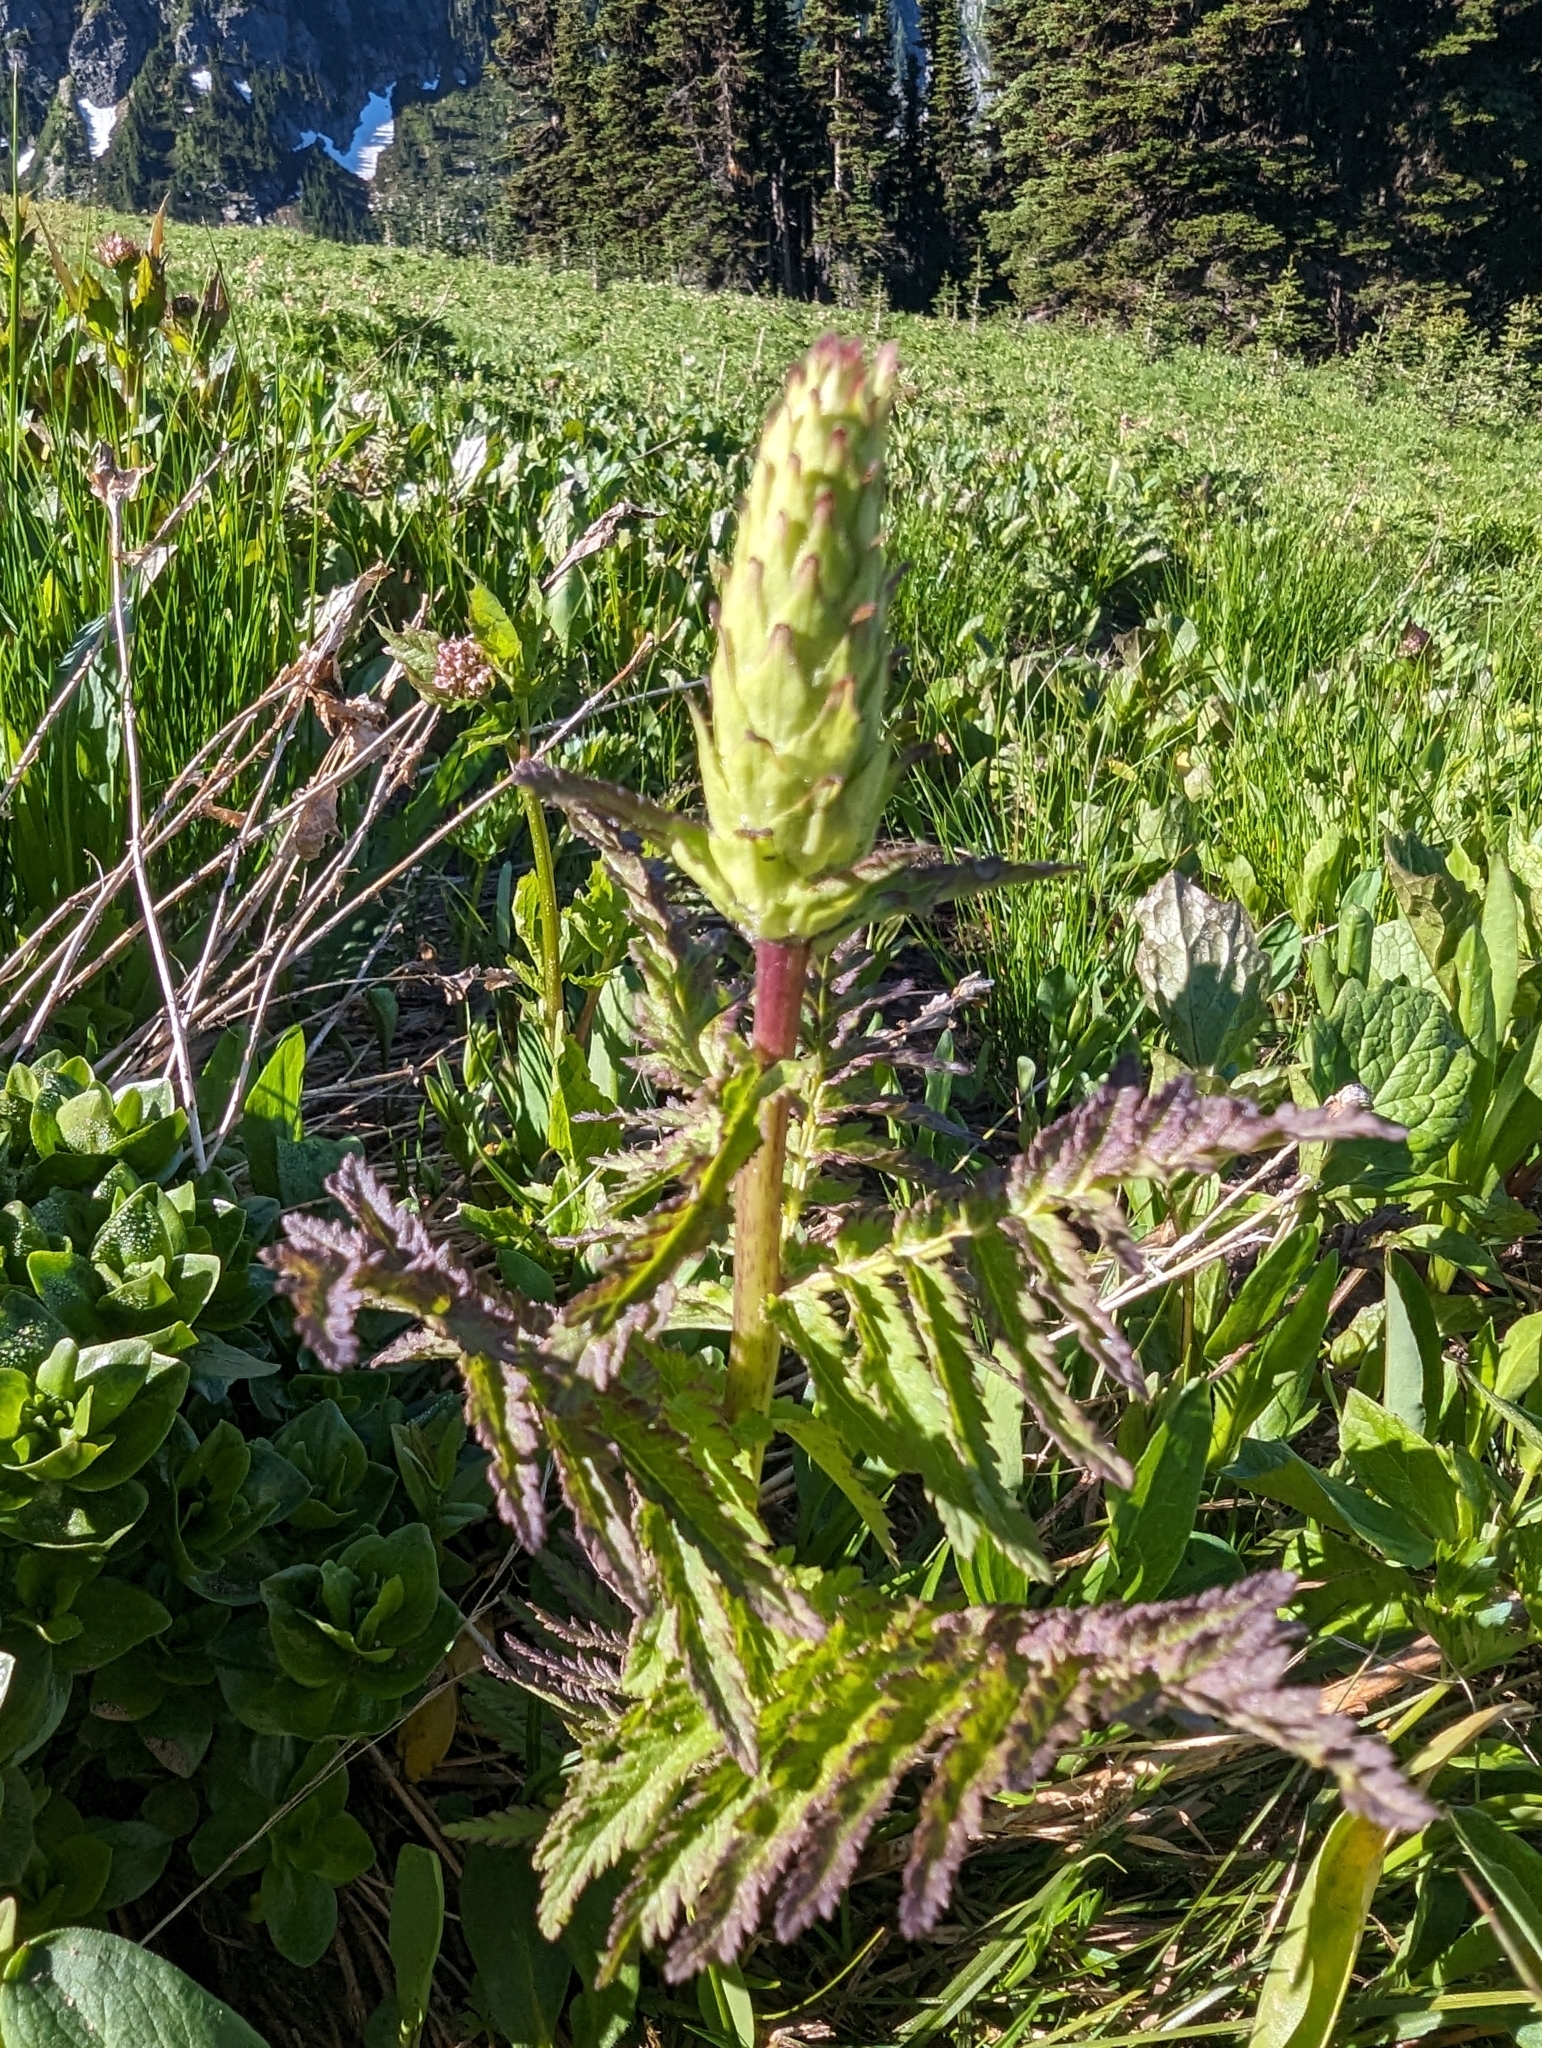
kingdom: Plantae
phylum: Tracheophyta
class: Magnoliopsida
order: Lamiales
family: Orobanchaceae
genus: Pedicularis
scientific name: Pedicularis bracteosa
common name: Bracted lousewort
